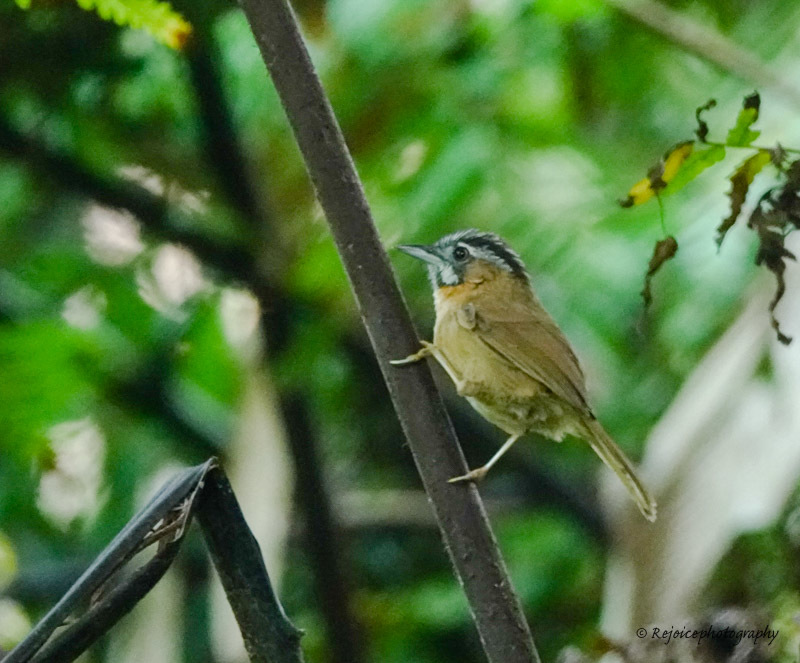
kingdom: Animalia
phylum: Chordata
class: Aves
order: Passeriformes
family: Timaliidae
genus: Stachyris
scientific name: Stachyris nigriceps
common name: Grey-throated babbler
